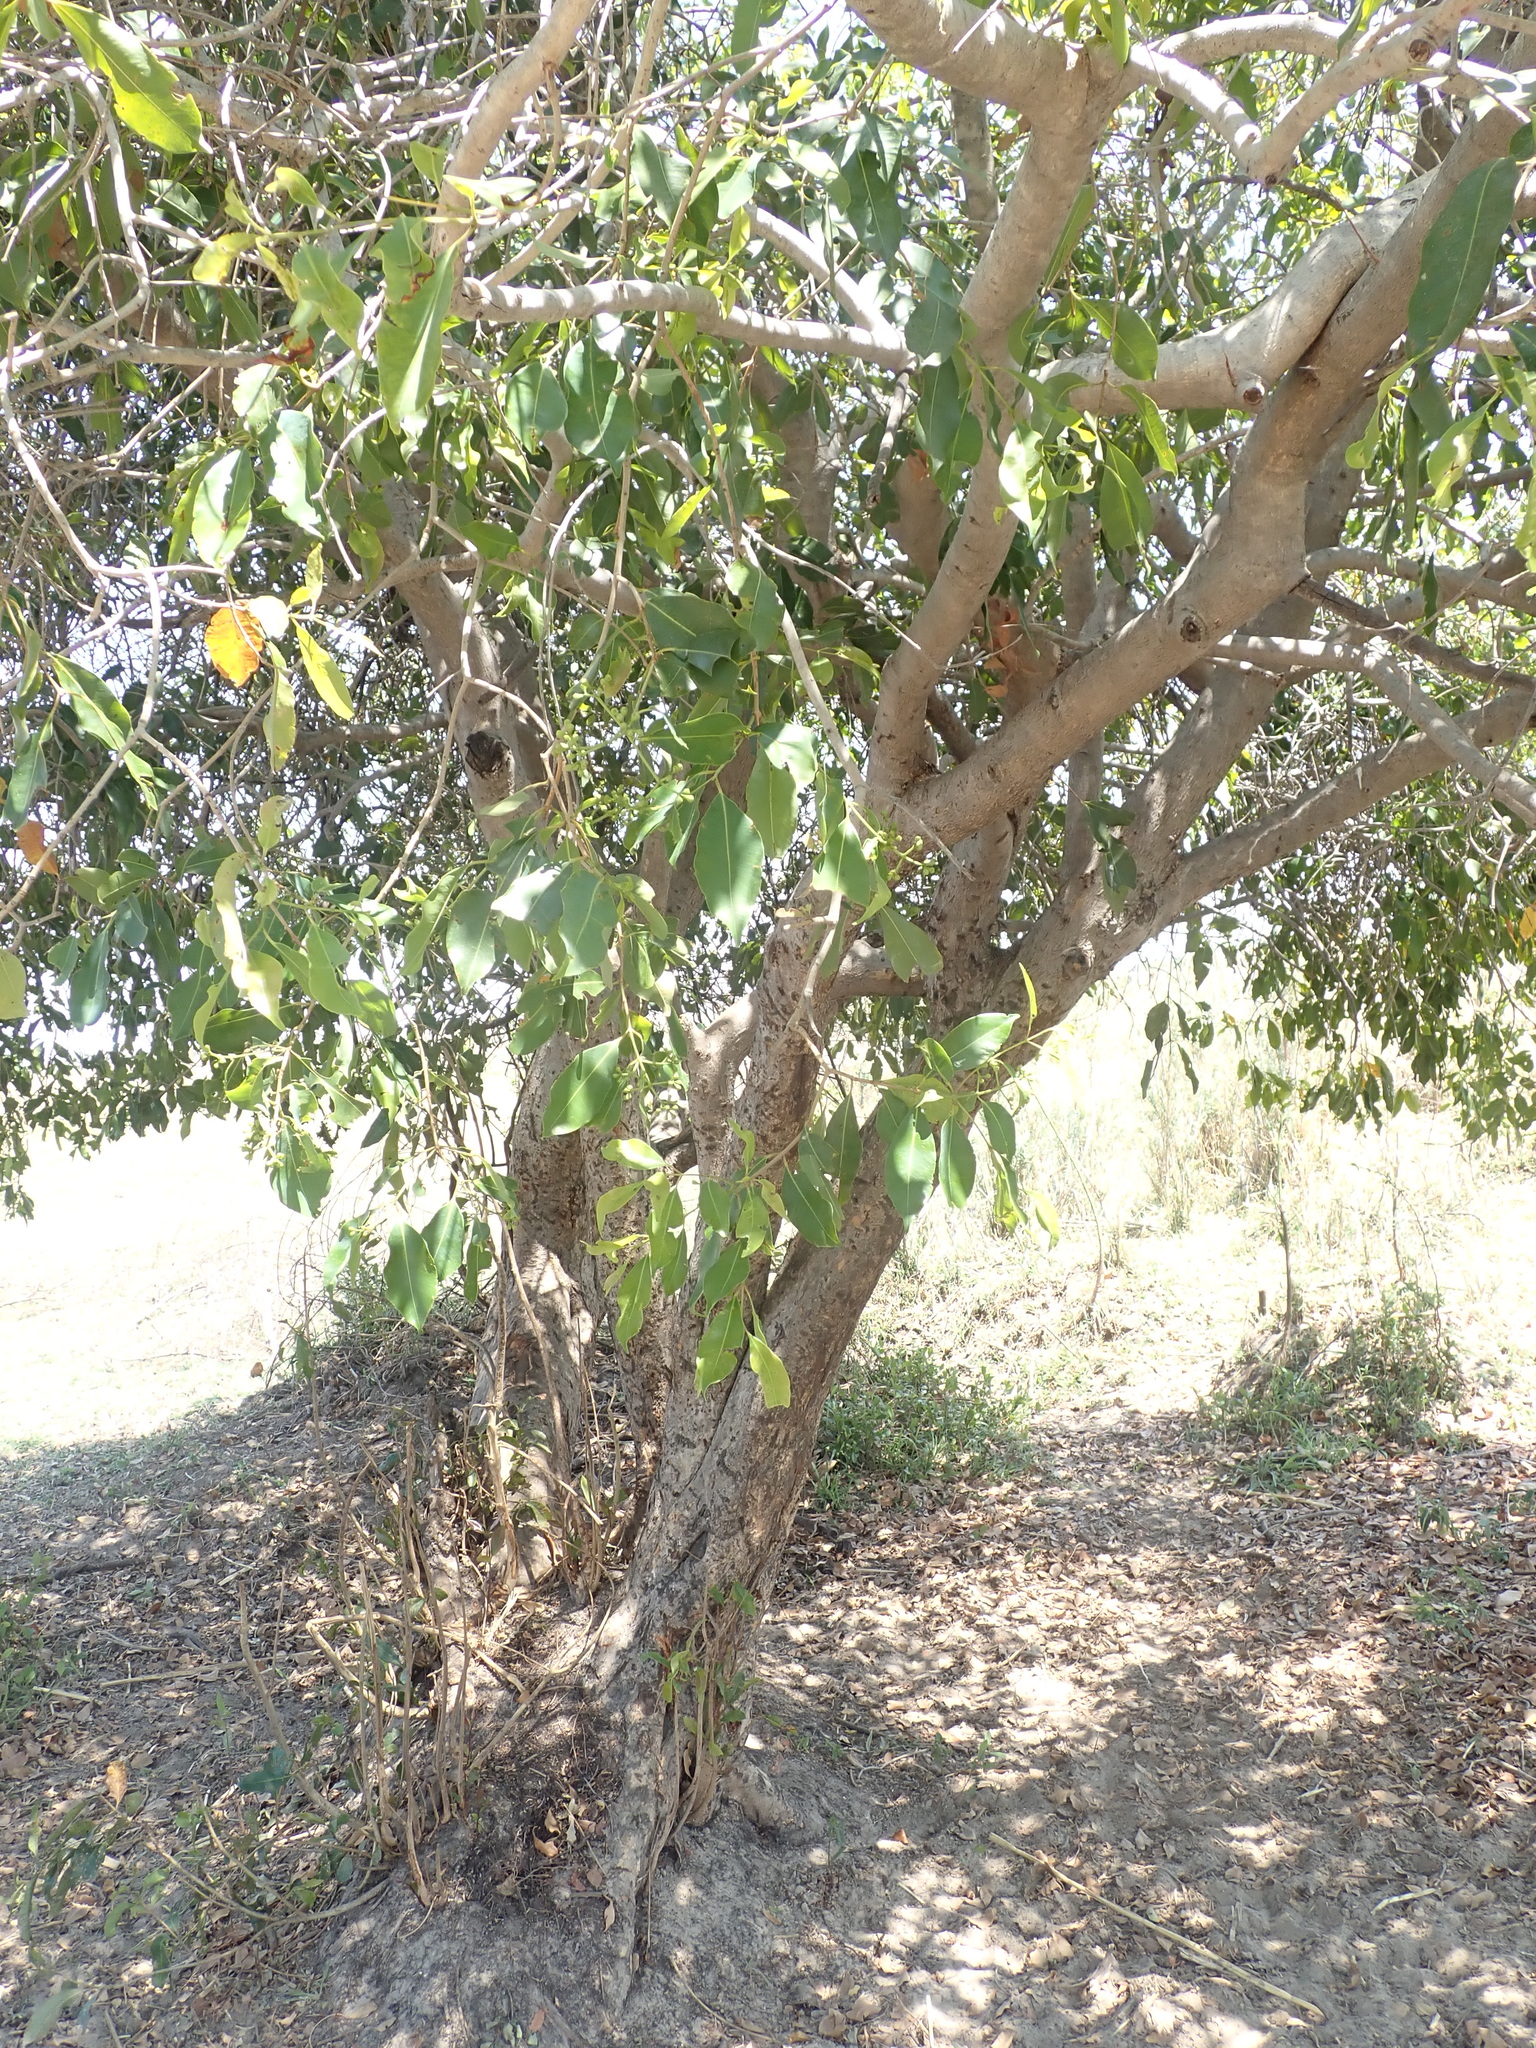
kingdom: Plantae
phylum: Tracheophyta
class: Magnoliopsida
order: Myrtales
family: Myrtaceae
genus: Syzygium
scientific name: Syzygium guineense
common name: Water-pear
